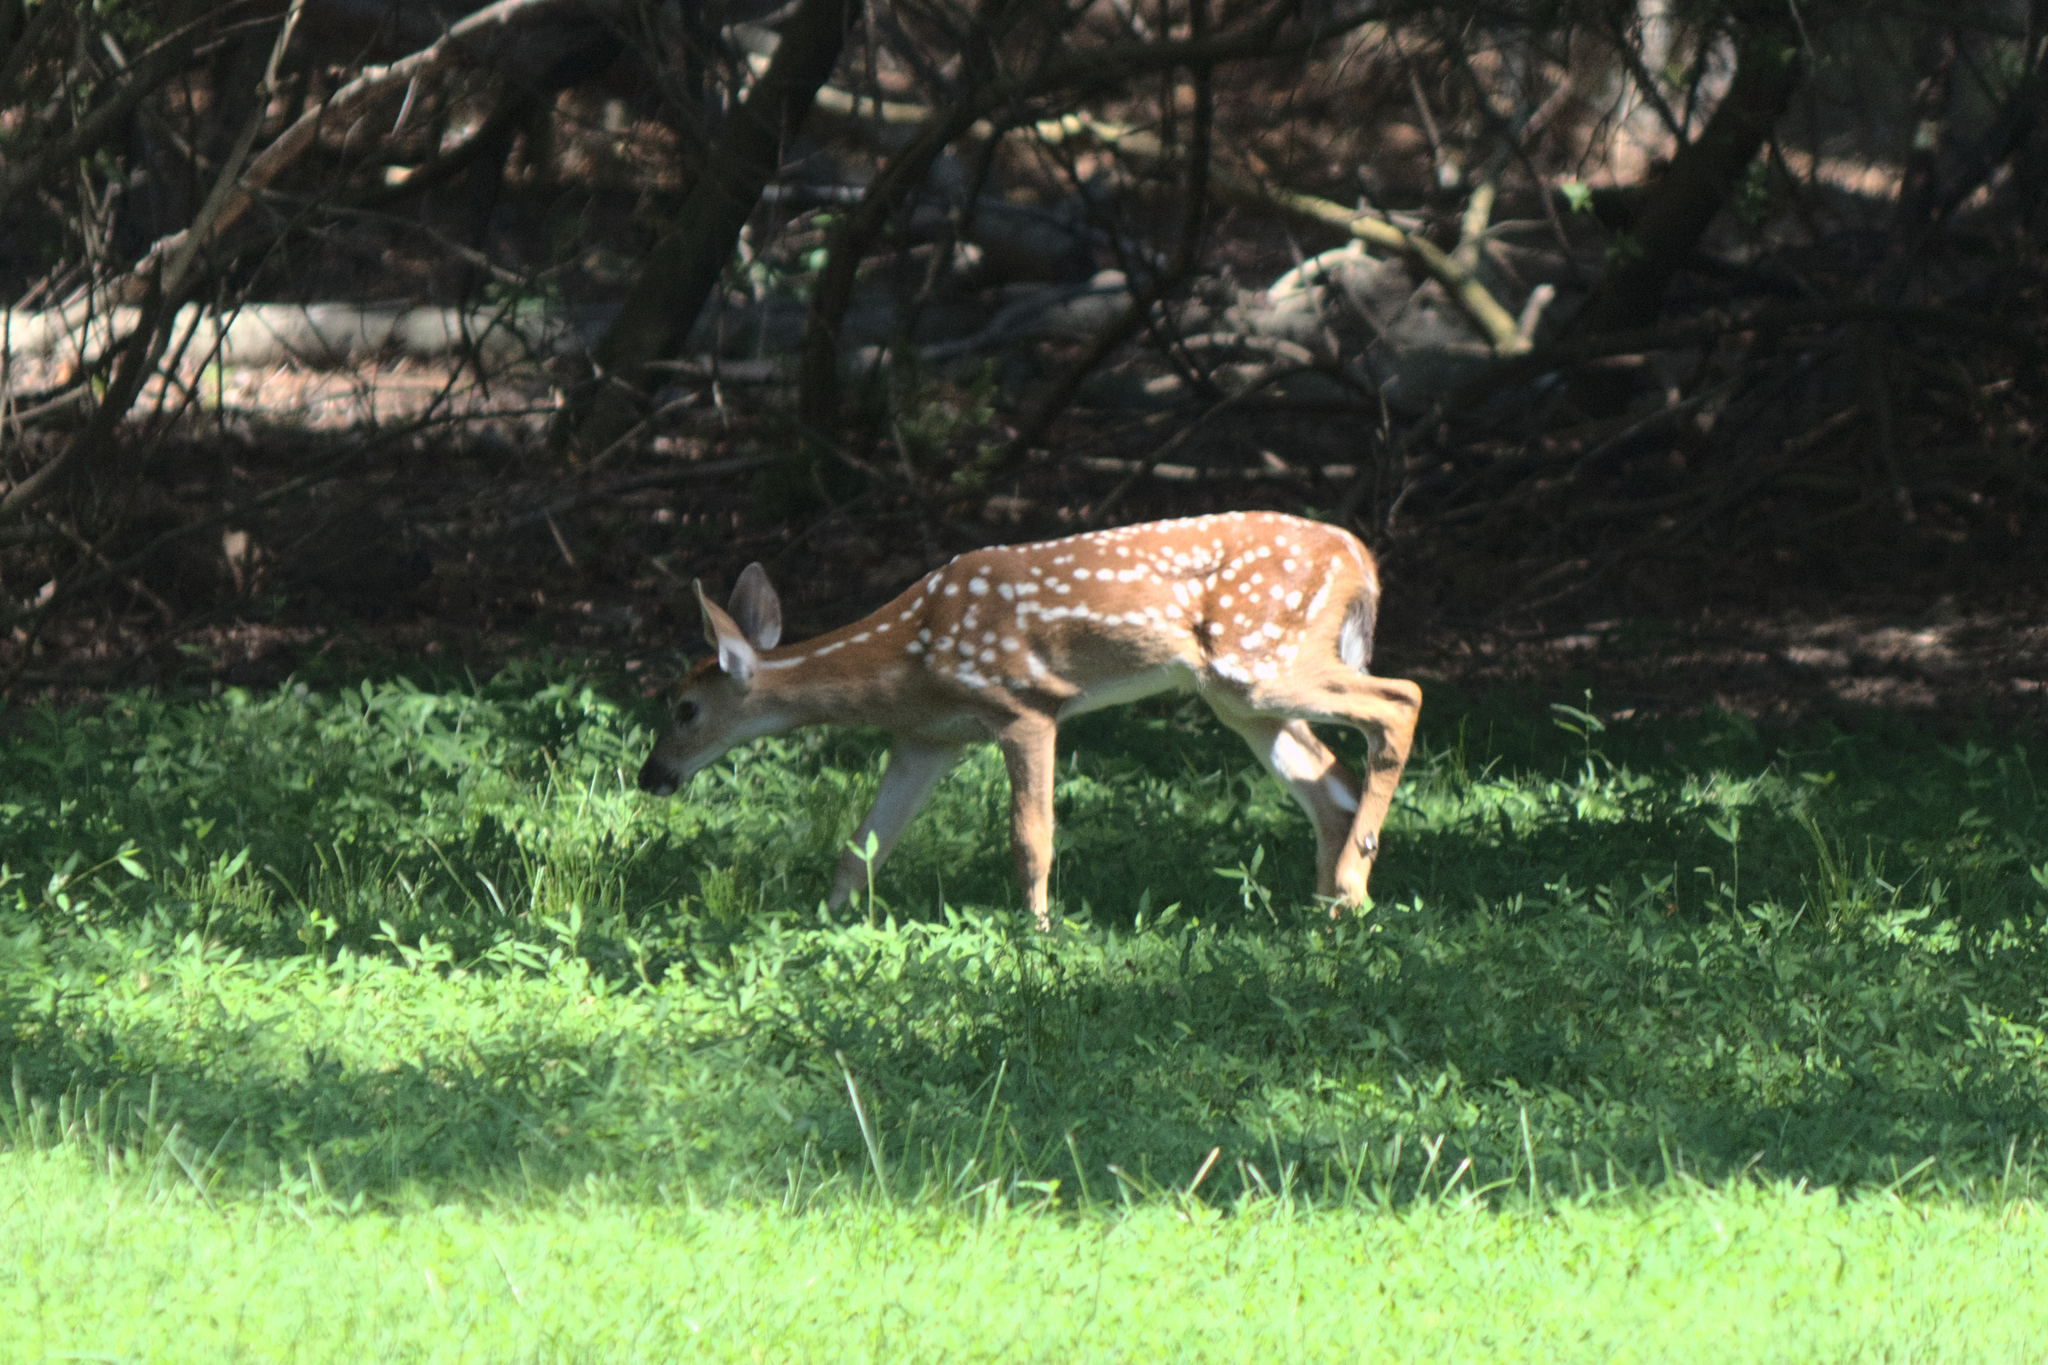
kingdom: Animalia
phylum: Chordata
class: Mammalia
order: Artiodactyla
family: Cervidae
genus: Odocoileus
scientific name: Odocoileus virginianus
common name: White-tailed deer
